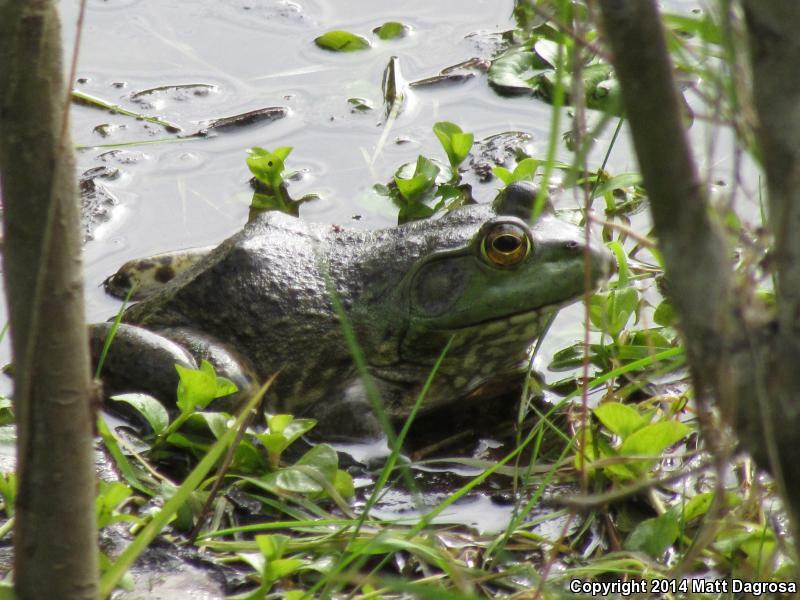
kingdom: Animalia
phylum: Chordata
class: Amphibia
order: Anura
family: Ranidae
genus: Lithobates
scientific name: Lithobates catesbeianus
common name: American bullfrog
